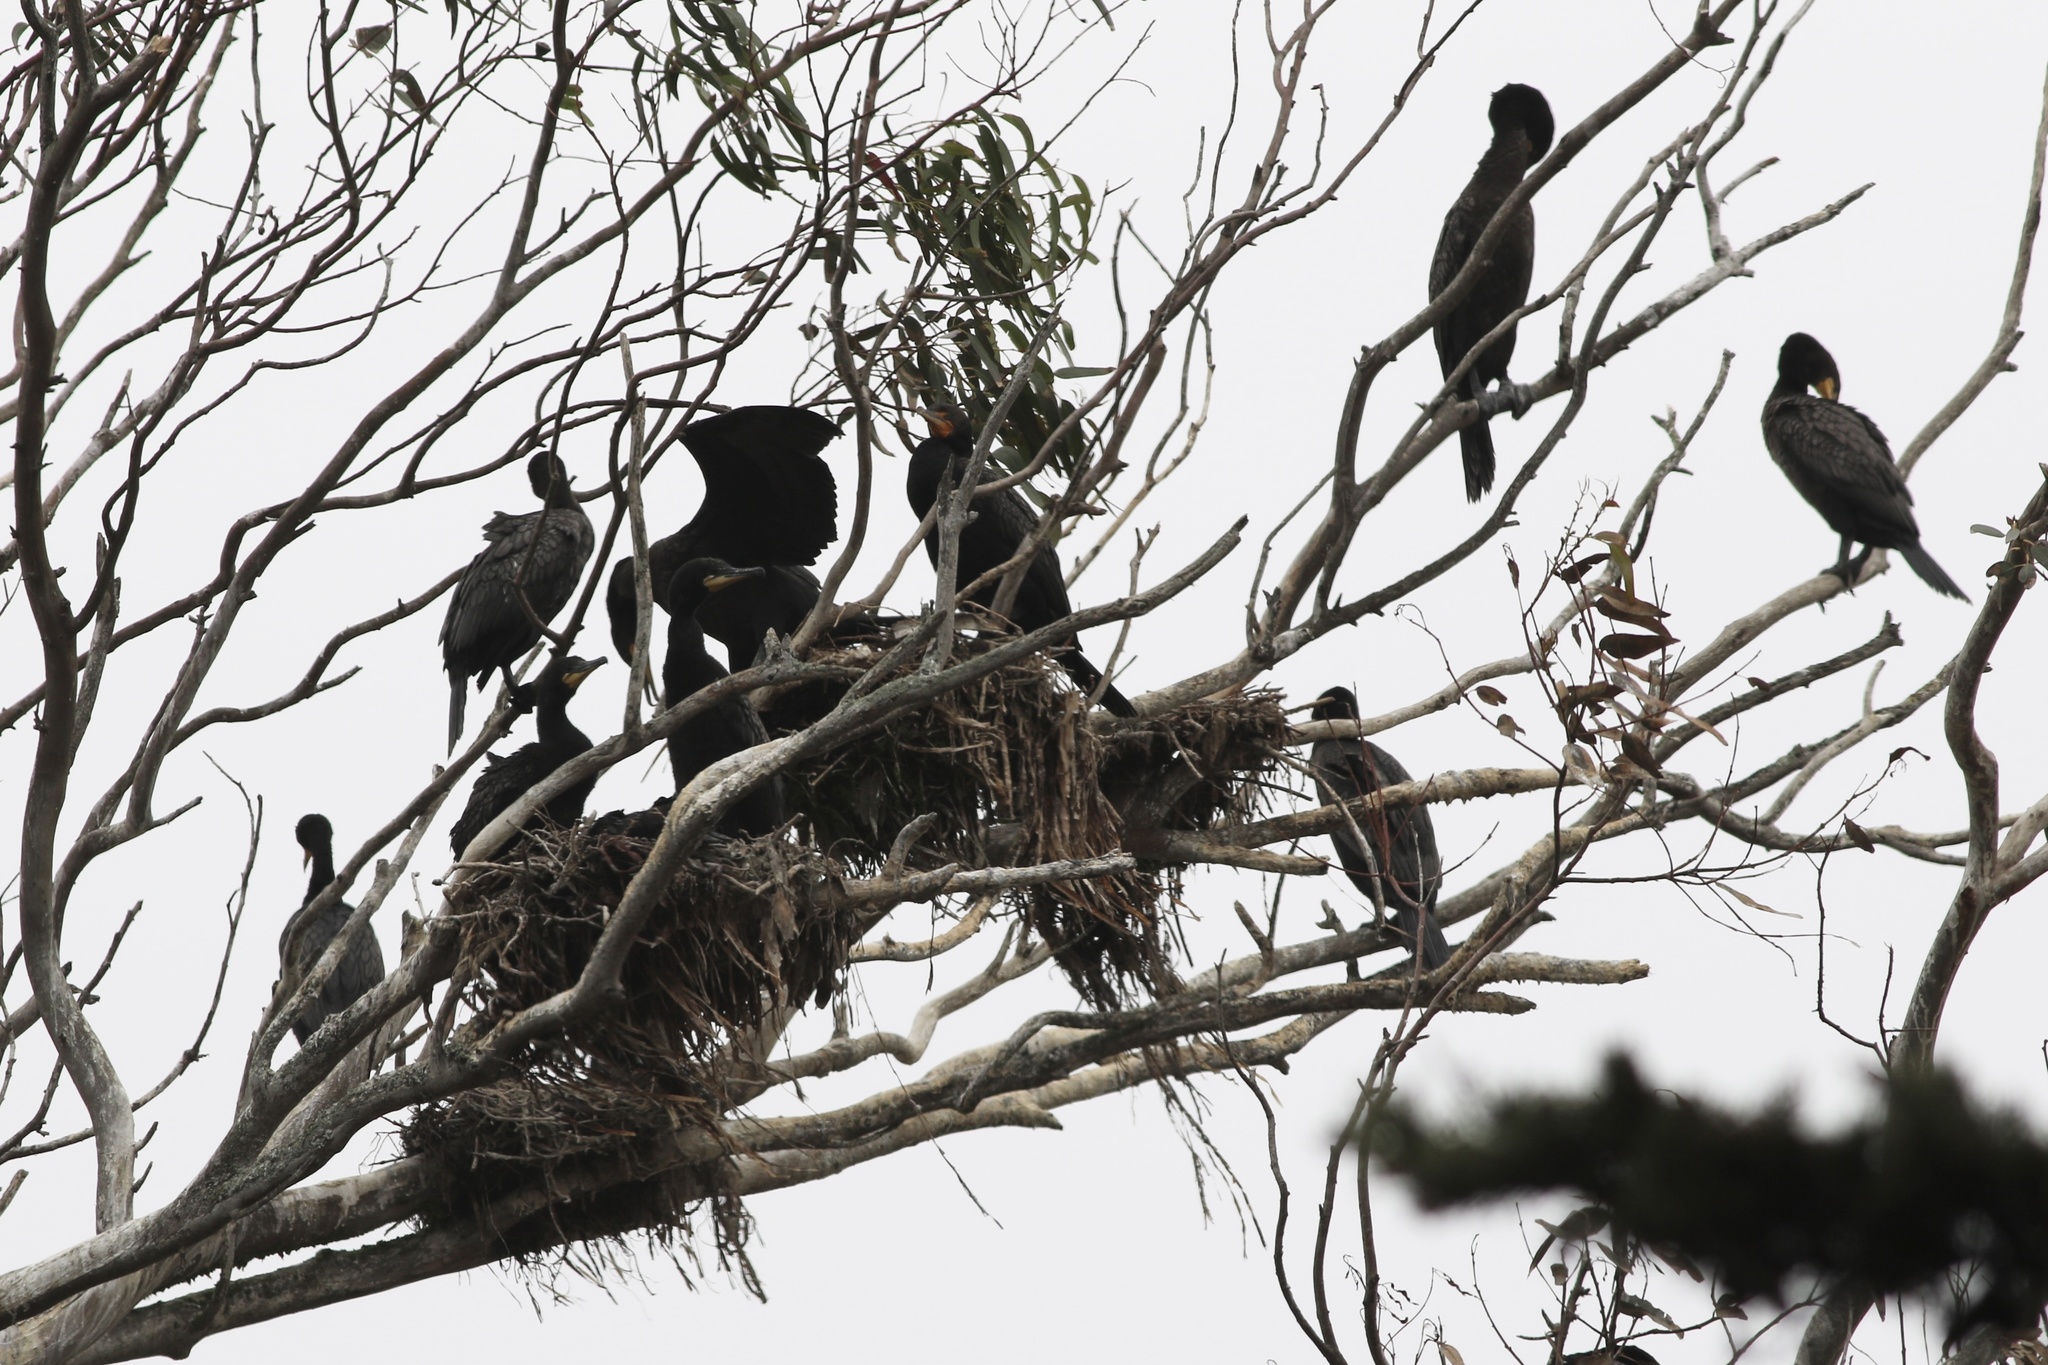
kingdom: Animalia
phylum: Chordata
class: Aves
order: Suliformes
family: Phalacrocoracidae
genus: Phalacrocorax
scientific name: Phalacrocorax auritus
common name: Double-crested cormorant
